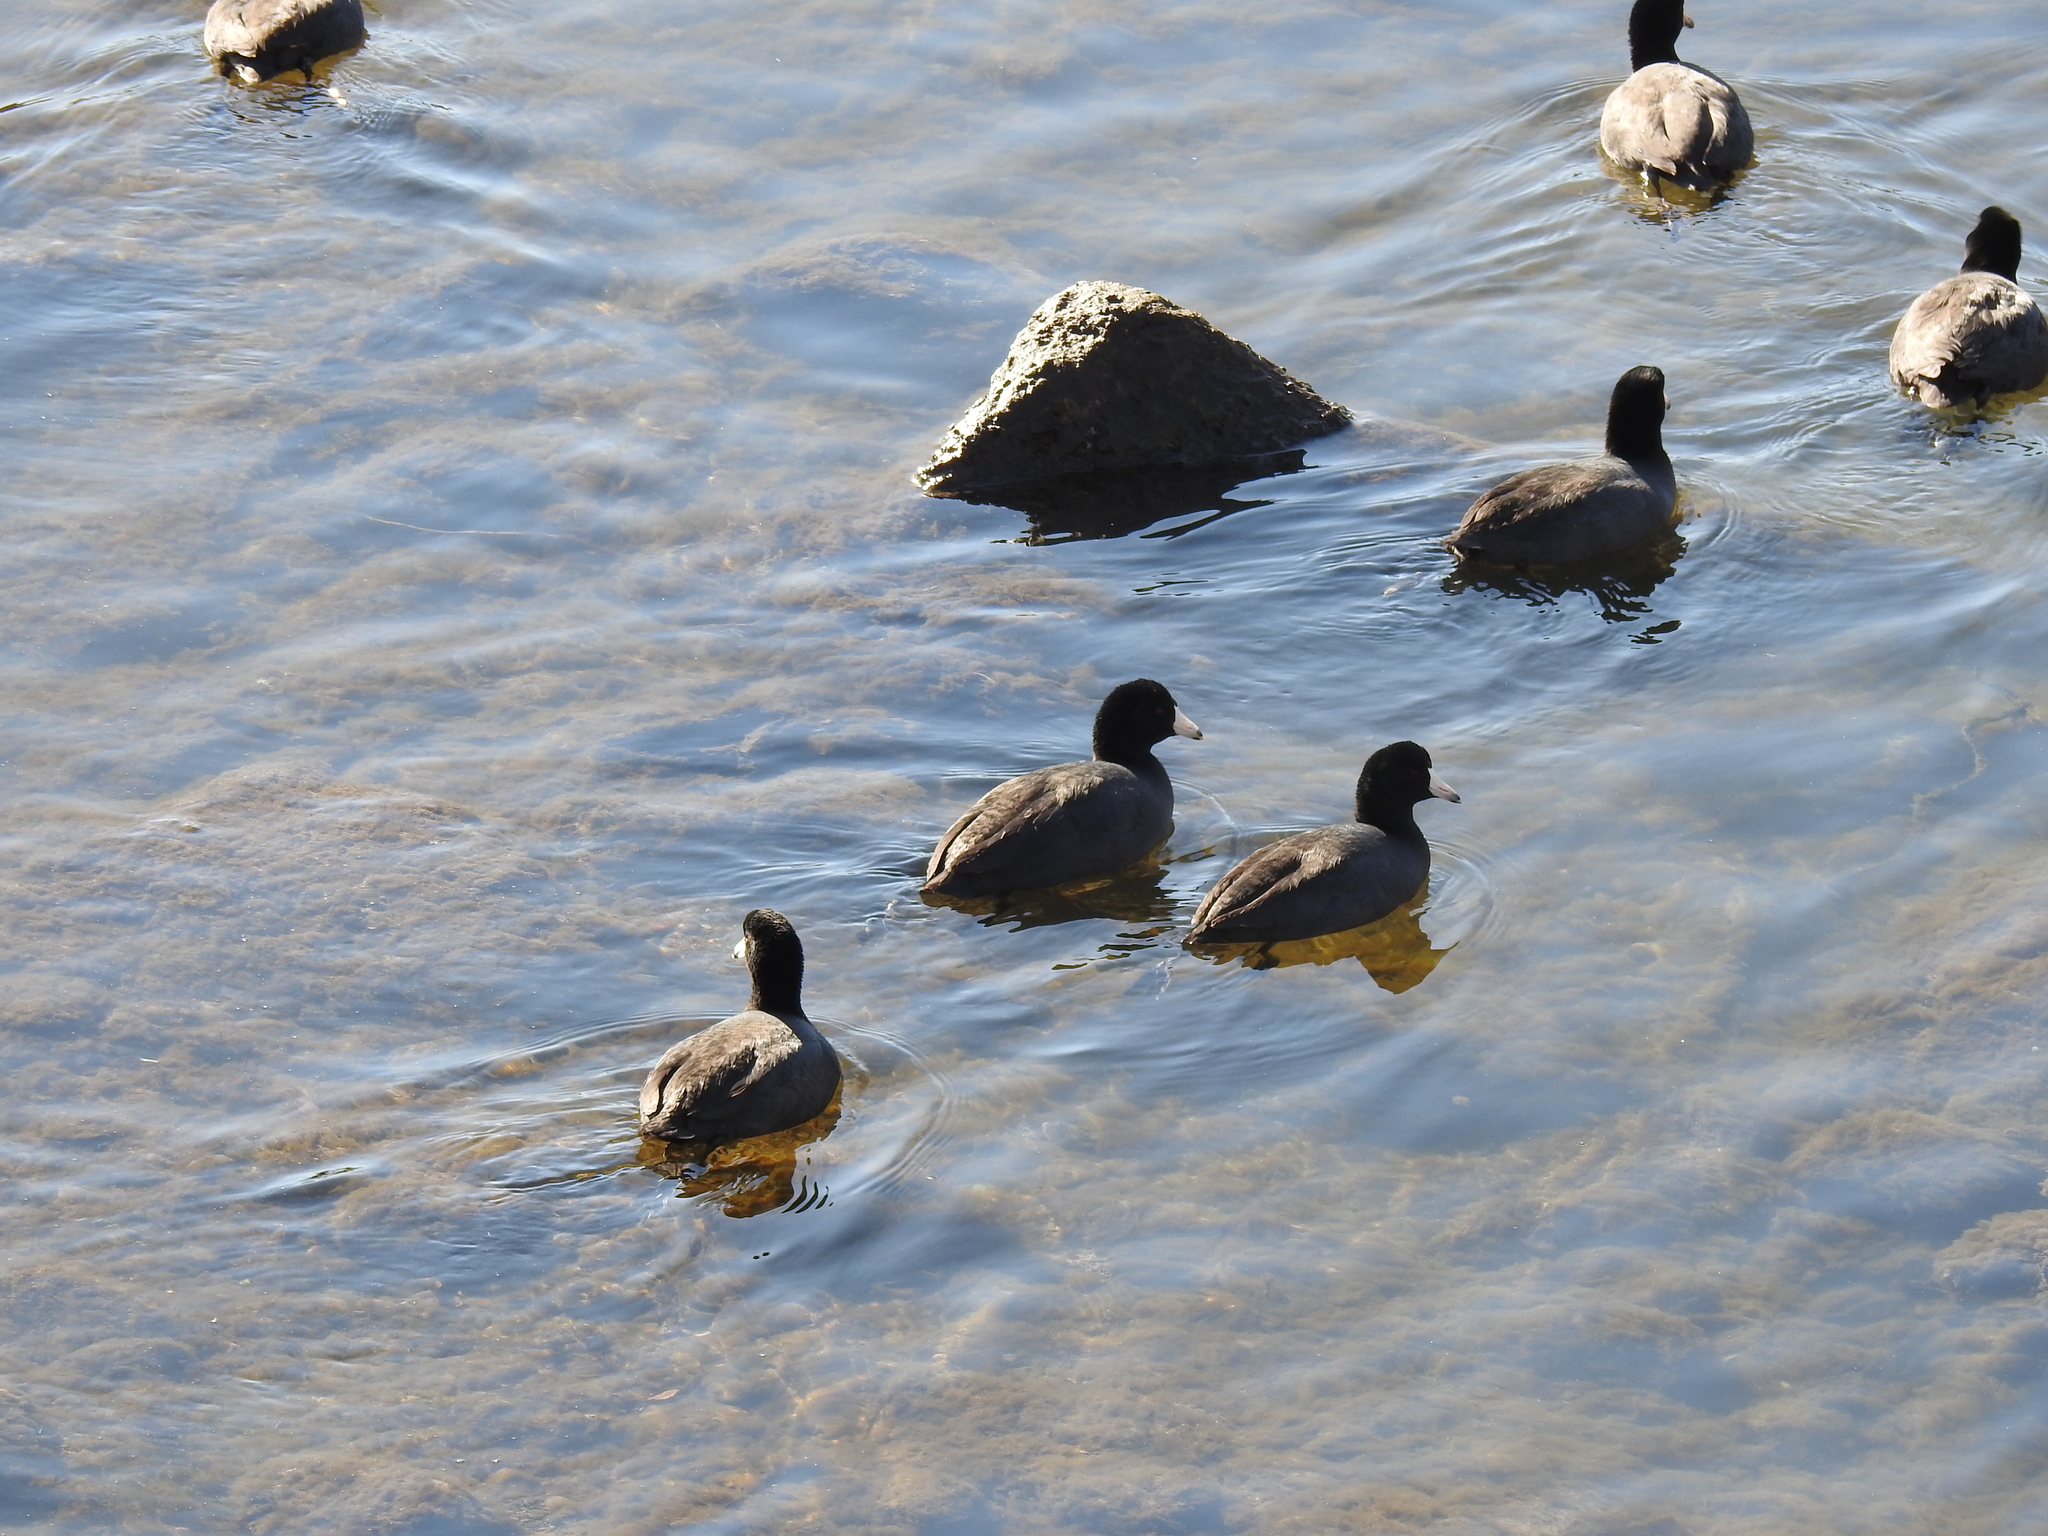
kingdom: Animalia
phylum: Chordata
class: Aves
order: Gruiformes
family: Rallidae
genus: Fulica
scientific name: Fulica americana
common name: American coot
